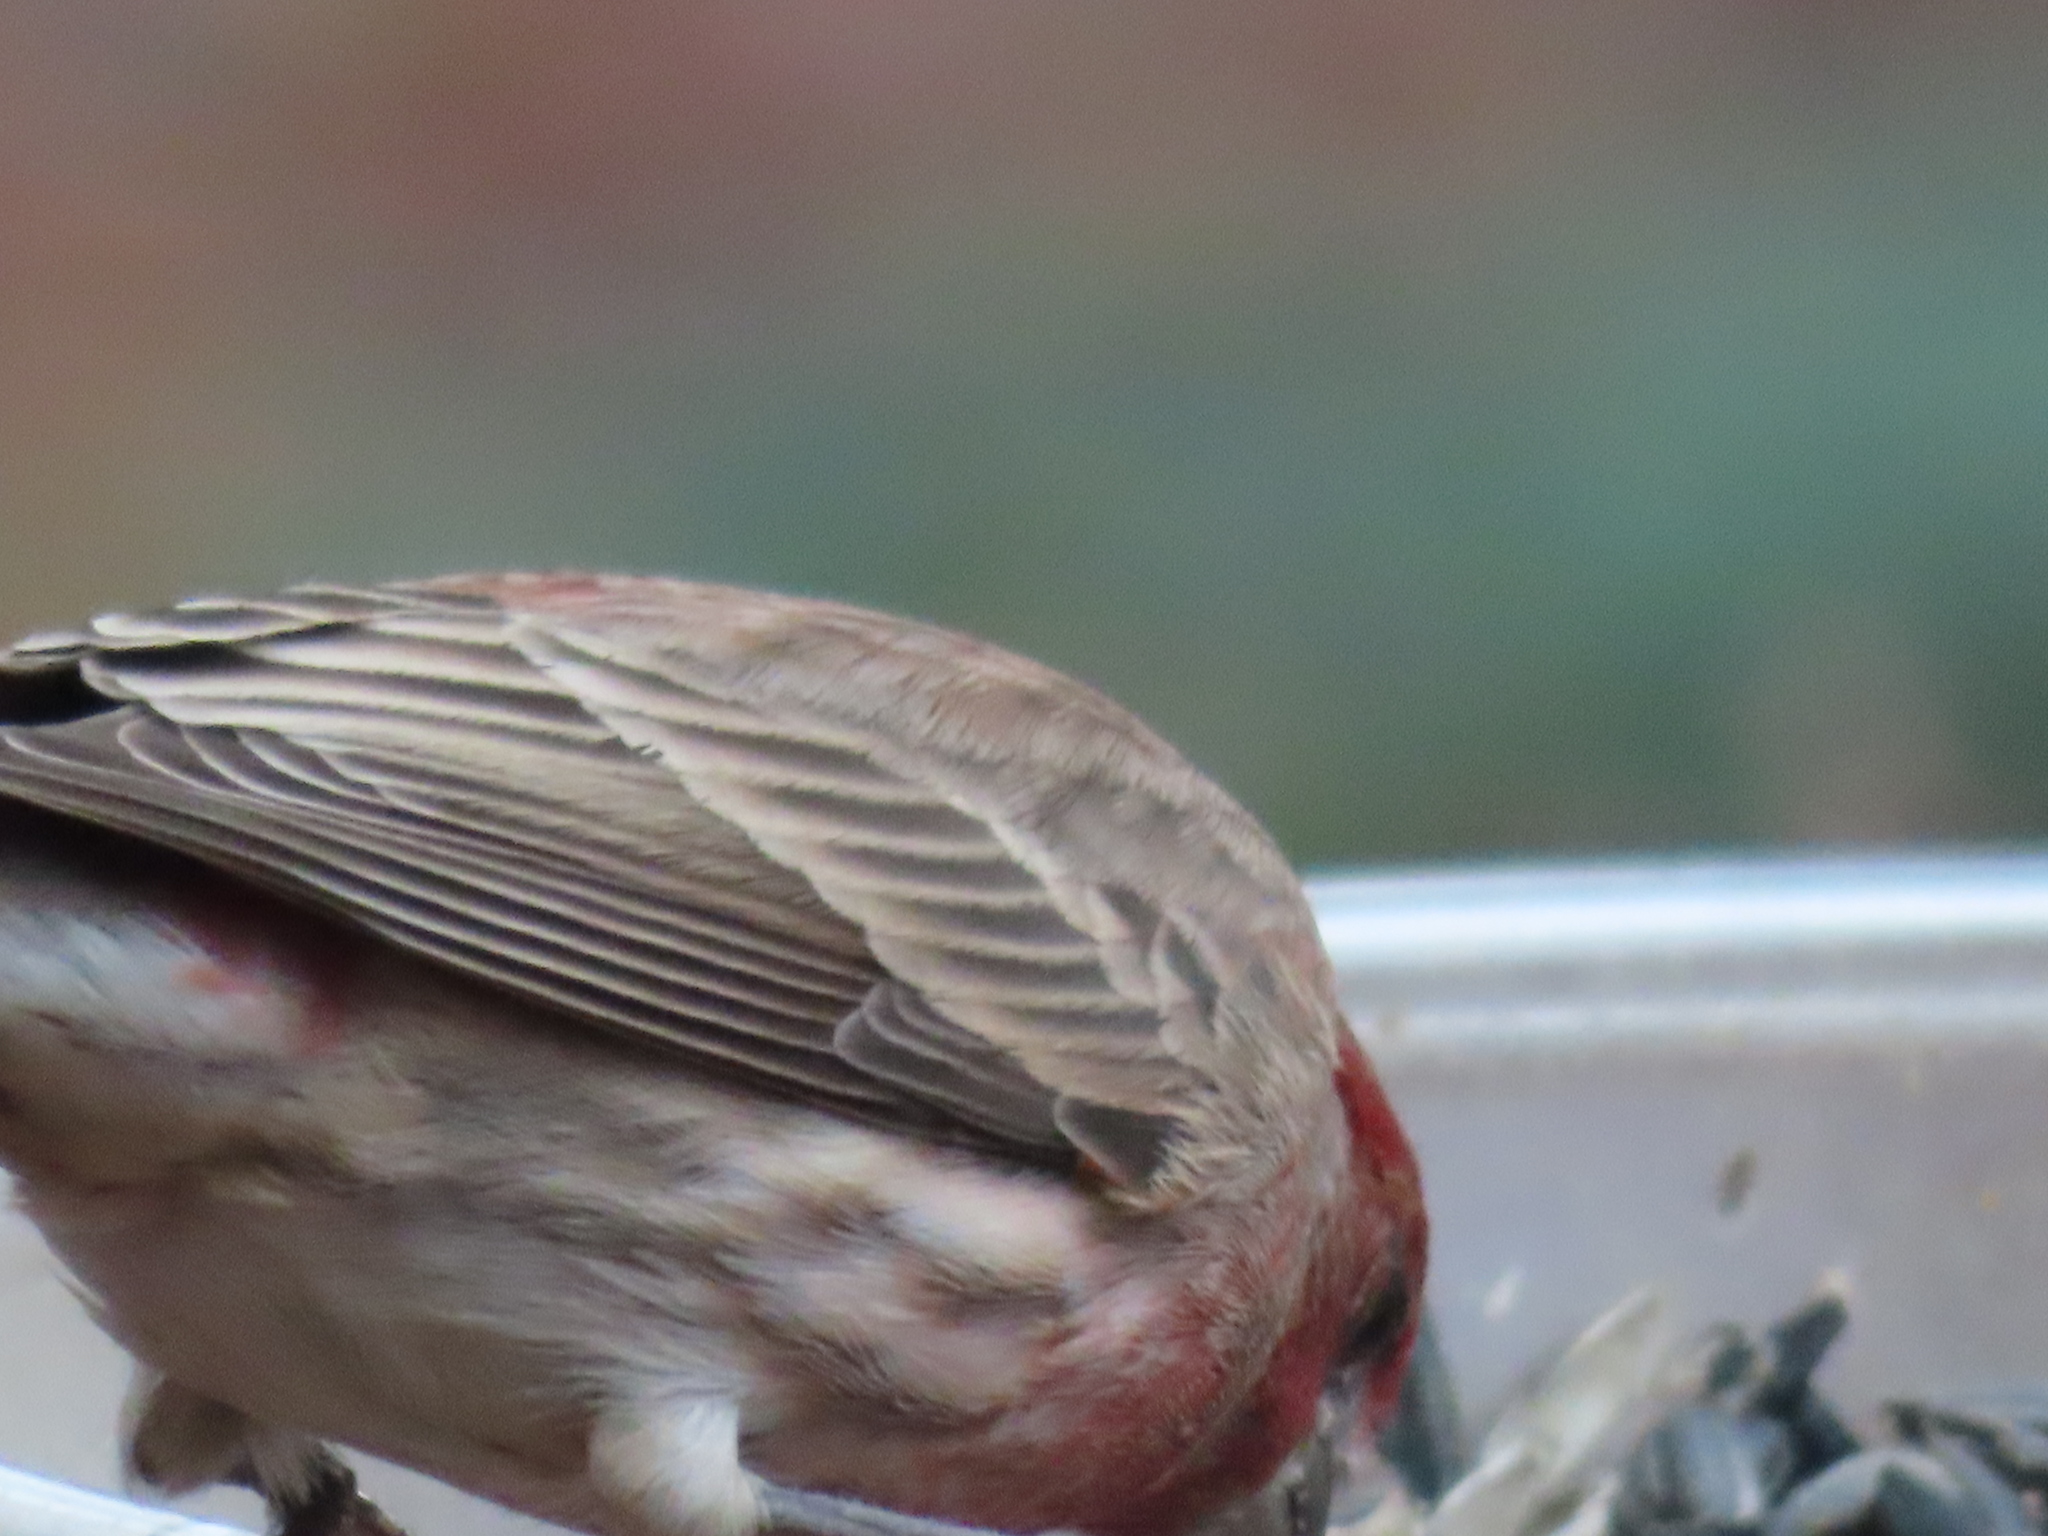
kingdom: Animalia
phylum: Chordata
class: Aves
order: Passeriformes
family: Fringillidae
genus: Haemorhous
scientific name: Haemorhous mexicanus
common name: House finch
